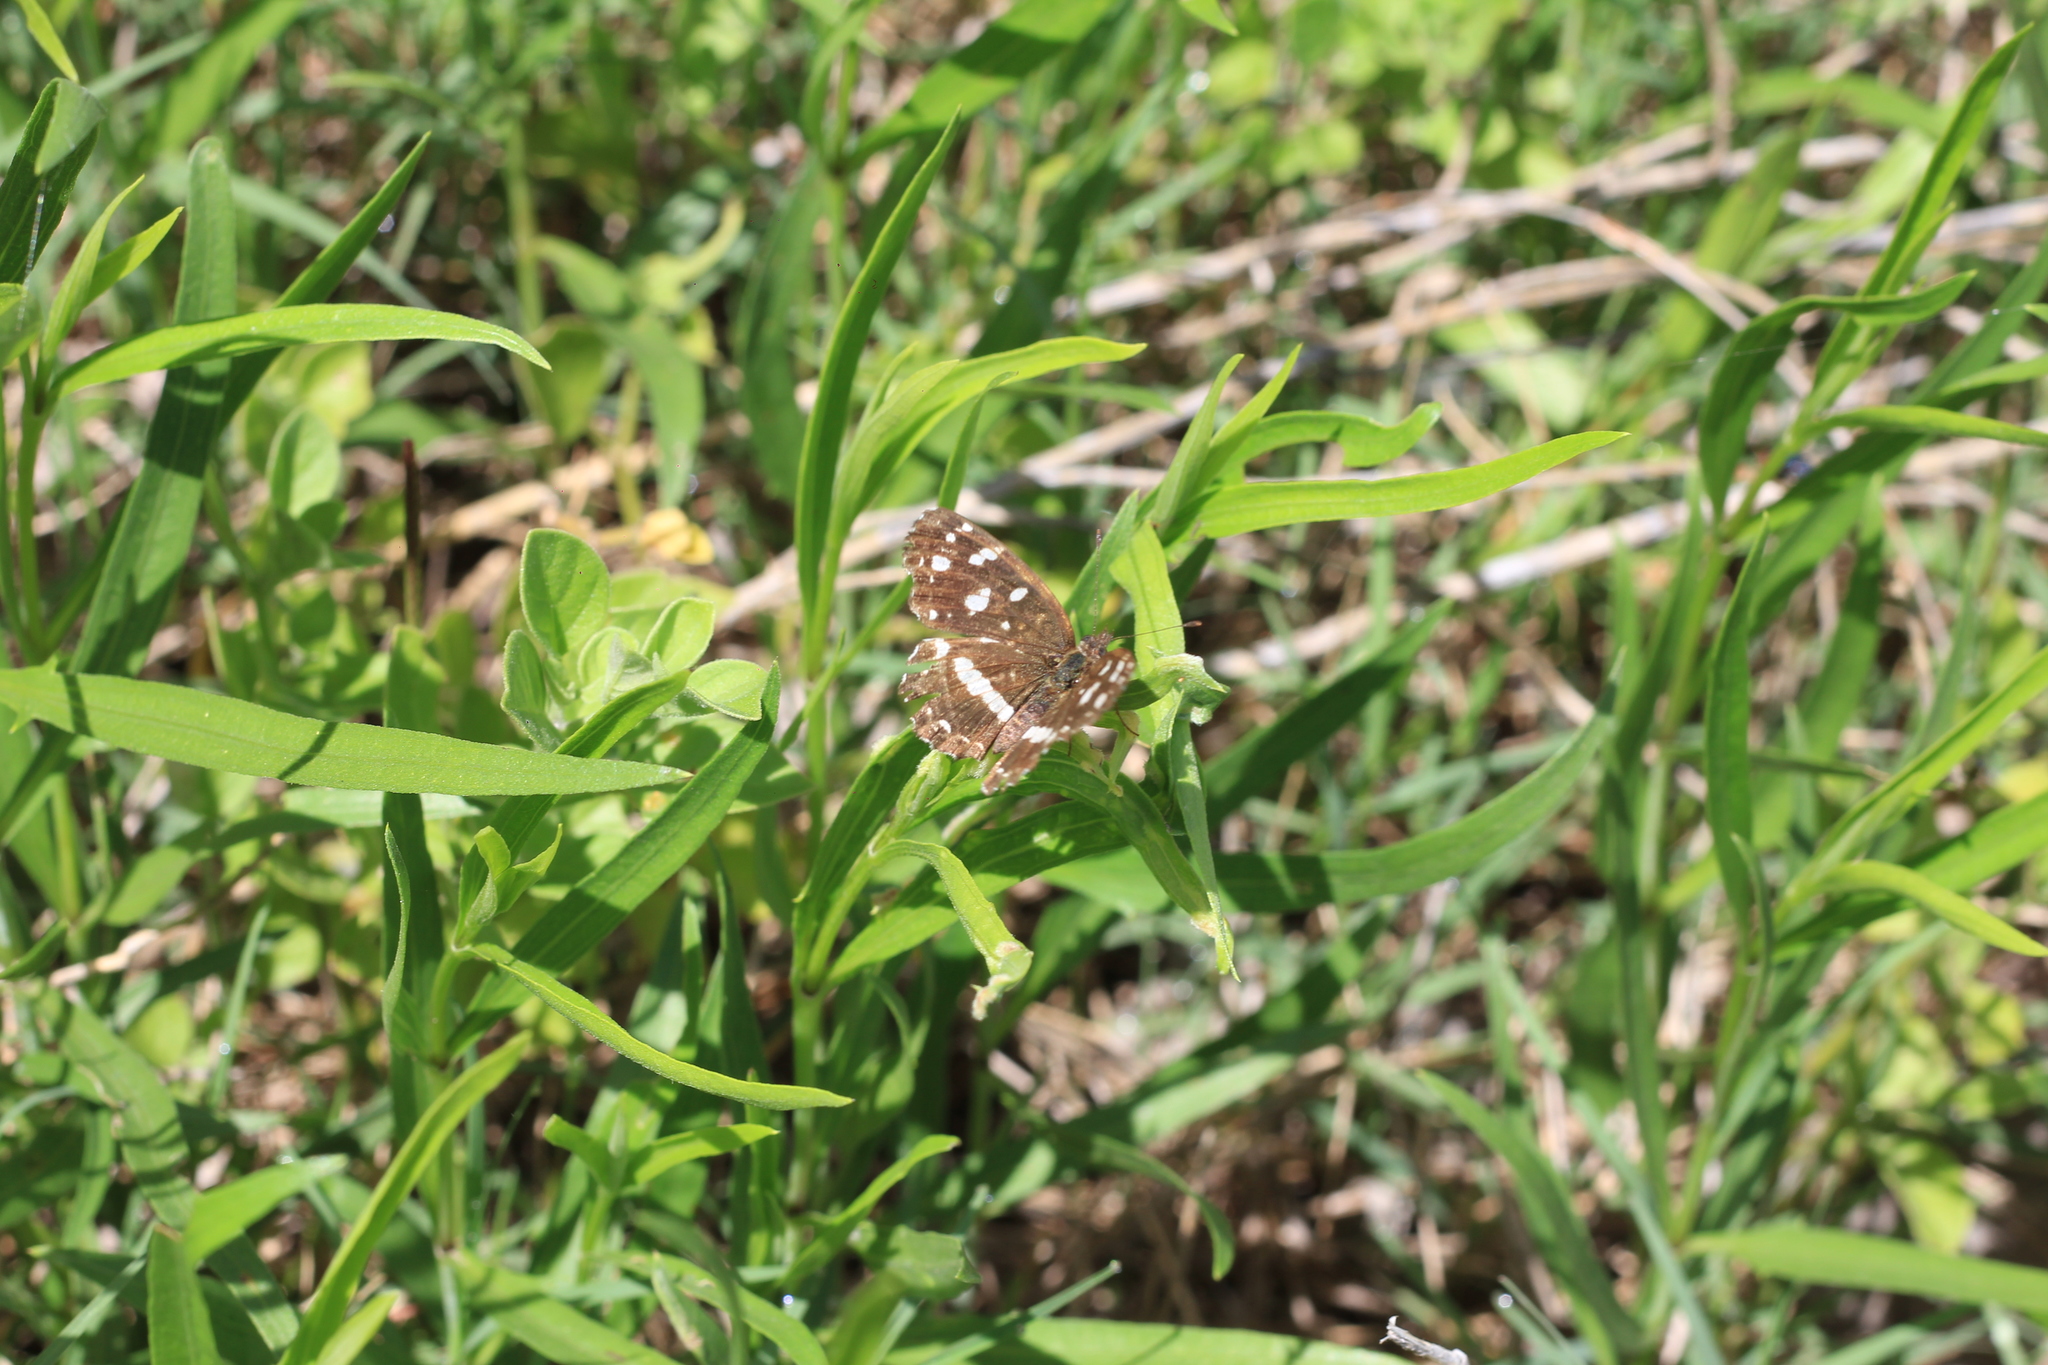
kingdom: Animalia
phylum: Arthropoda
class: Insecta
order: Lepidoptera
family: Nymphalidae
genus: Ortilia
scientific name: Ortilia ithra
